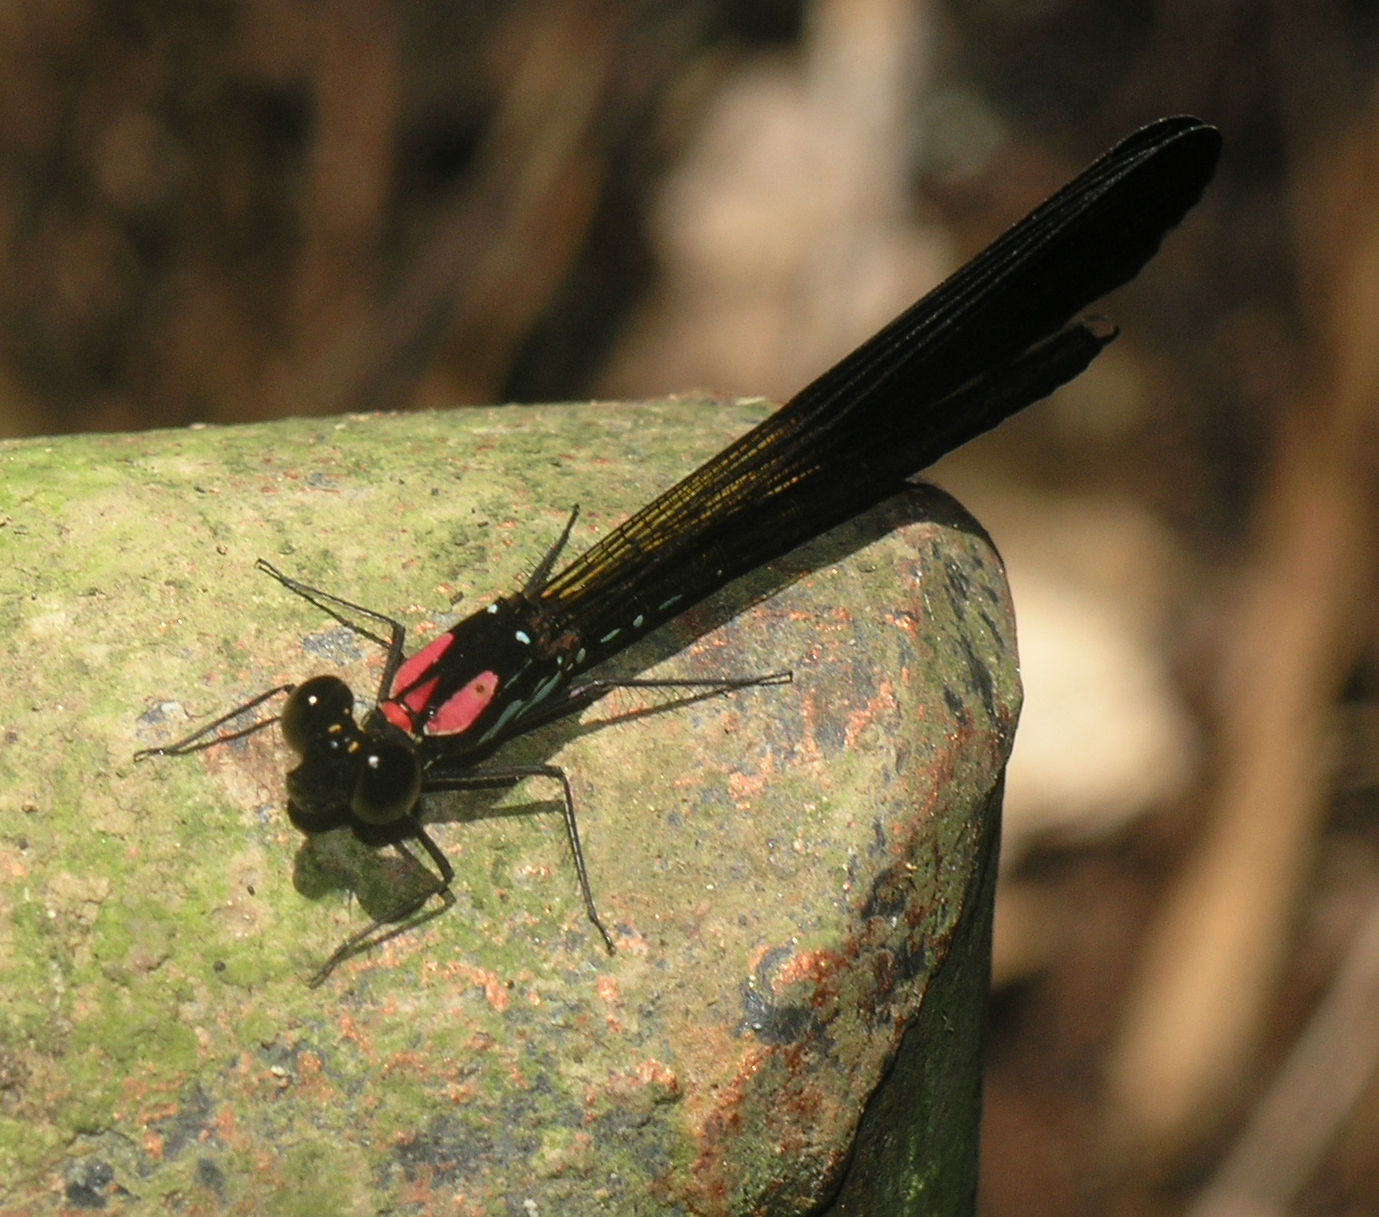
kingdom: Animalia
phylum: Arthropoda
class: Insecta
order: Odonata
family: Chlorocyphidae
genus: Heliocypha
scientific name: Heliocypha fenestrata
